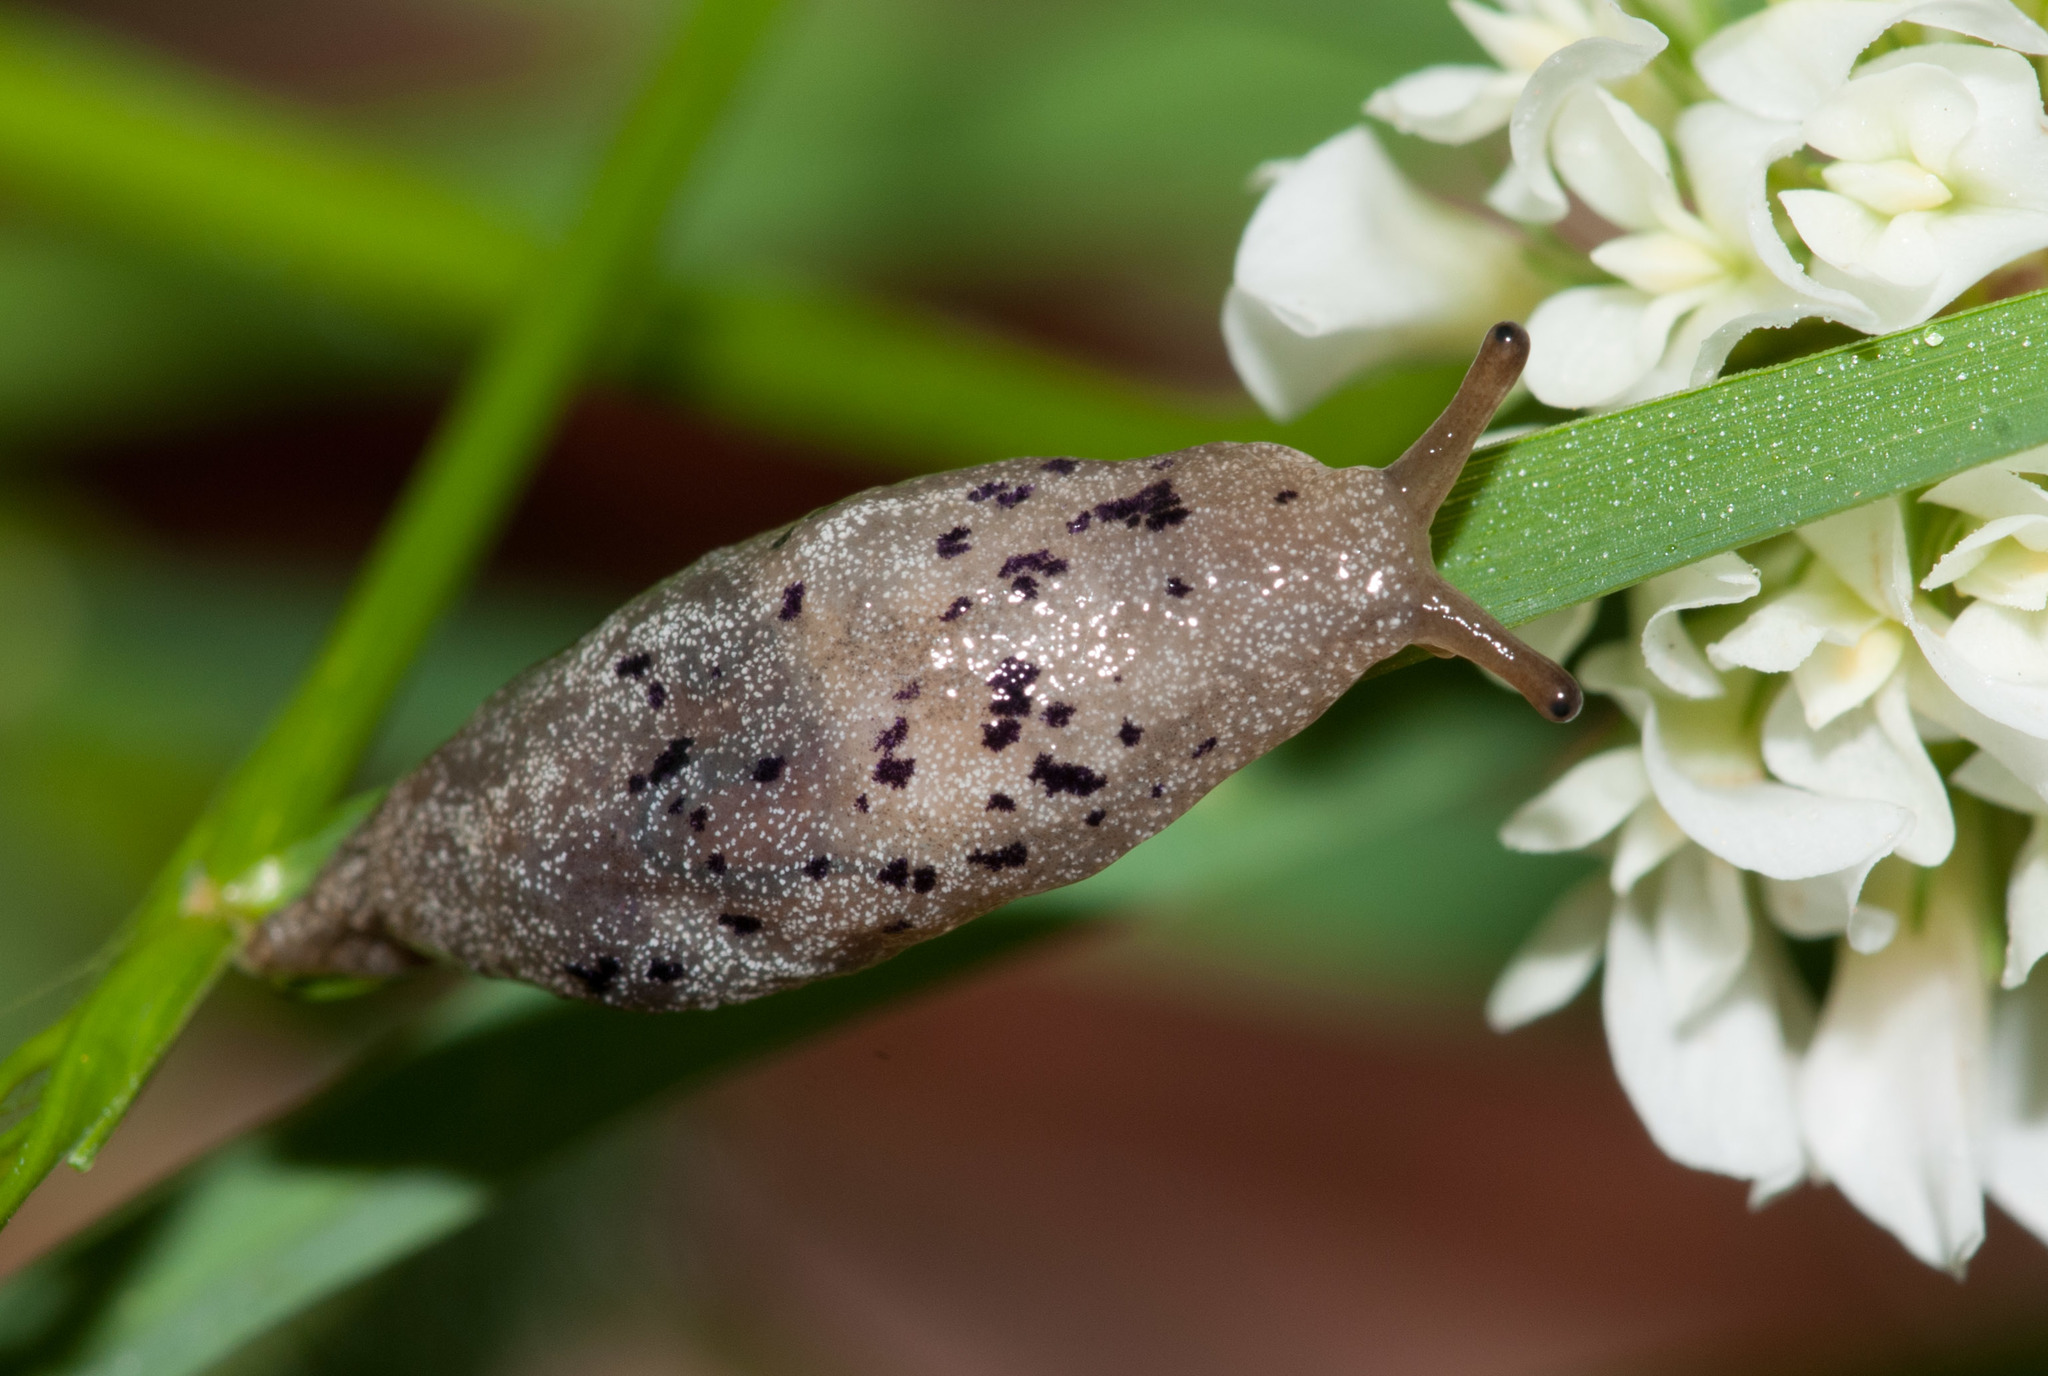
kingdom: Animalia
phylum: Mollusca
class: Gastropoda
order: Stylommatophora
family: Cystopeltidae
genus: Cystopelta
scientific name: Cystopelta purpurea
